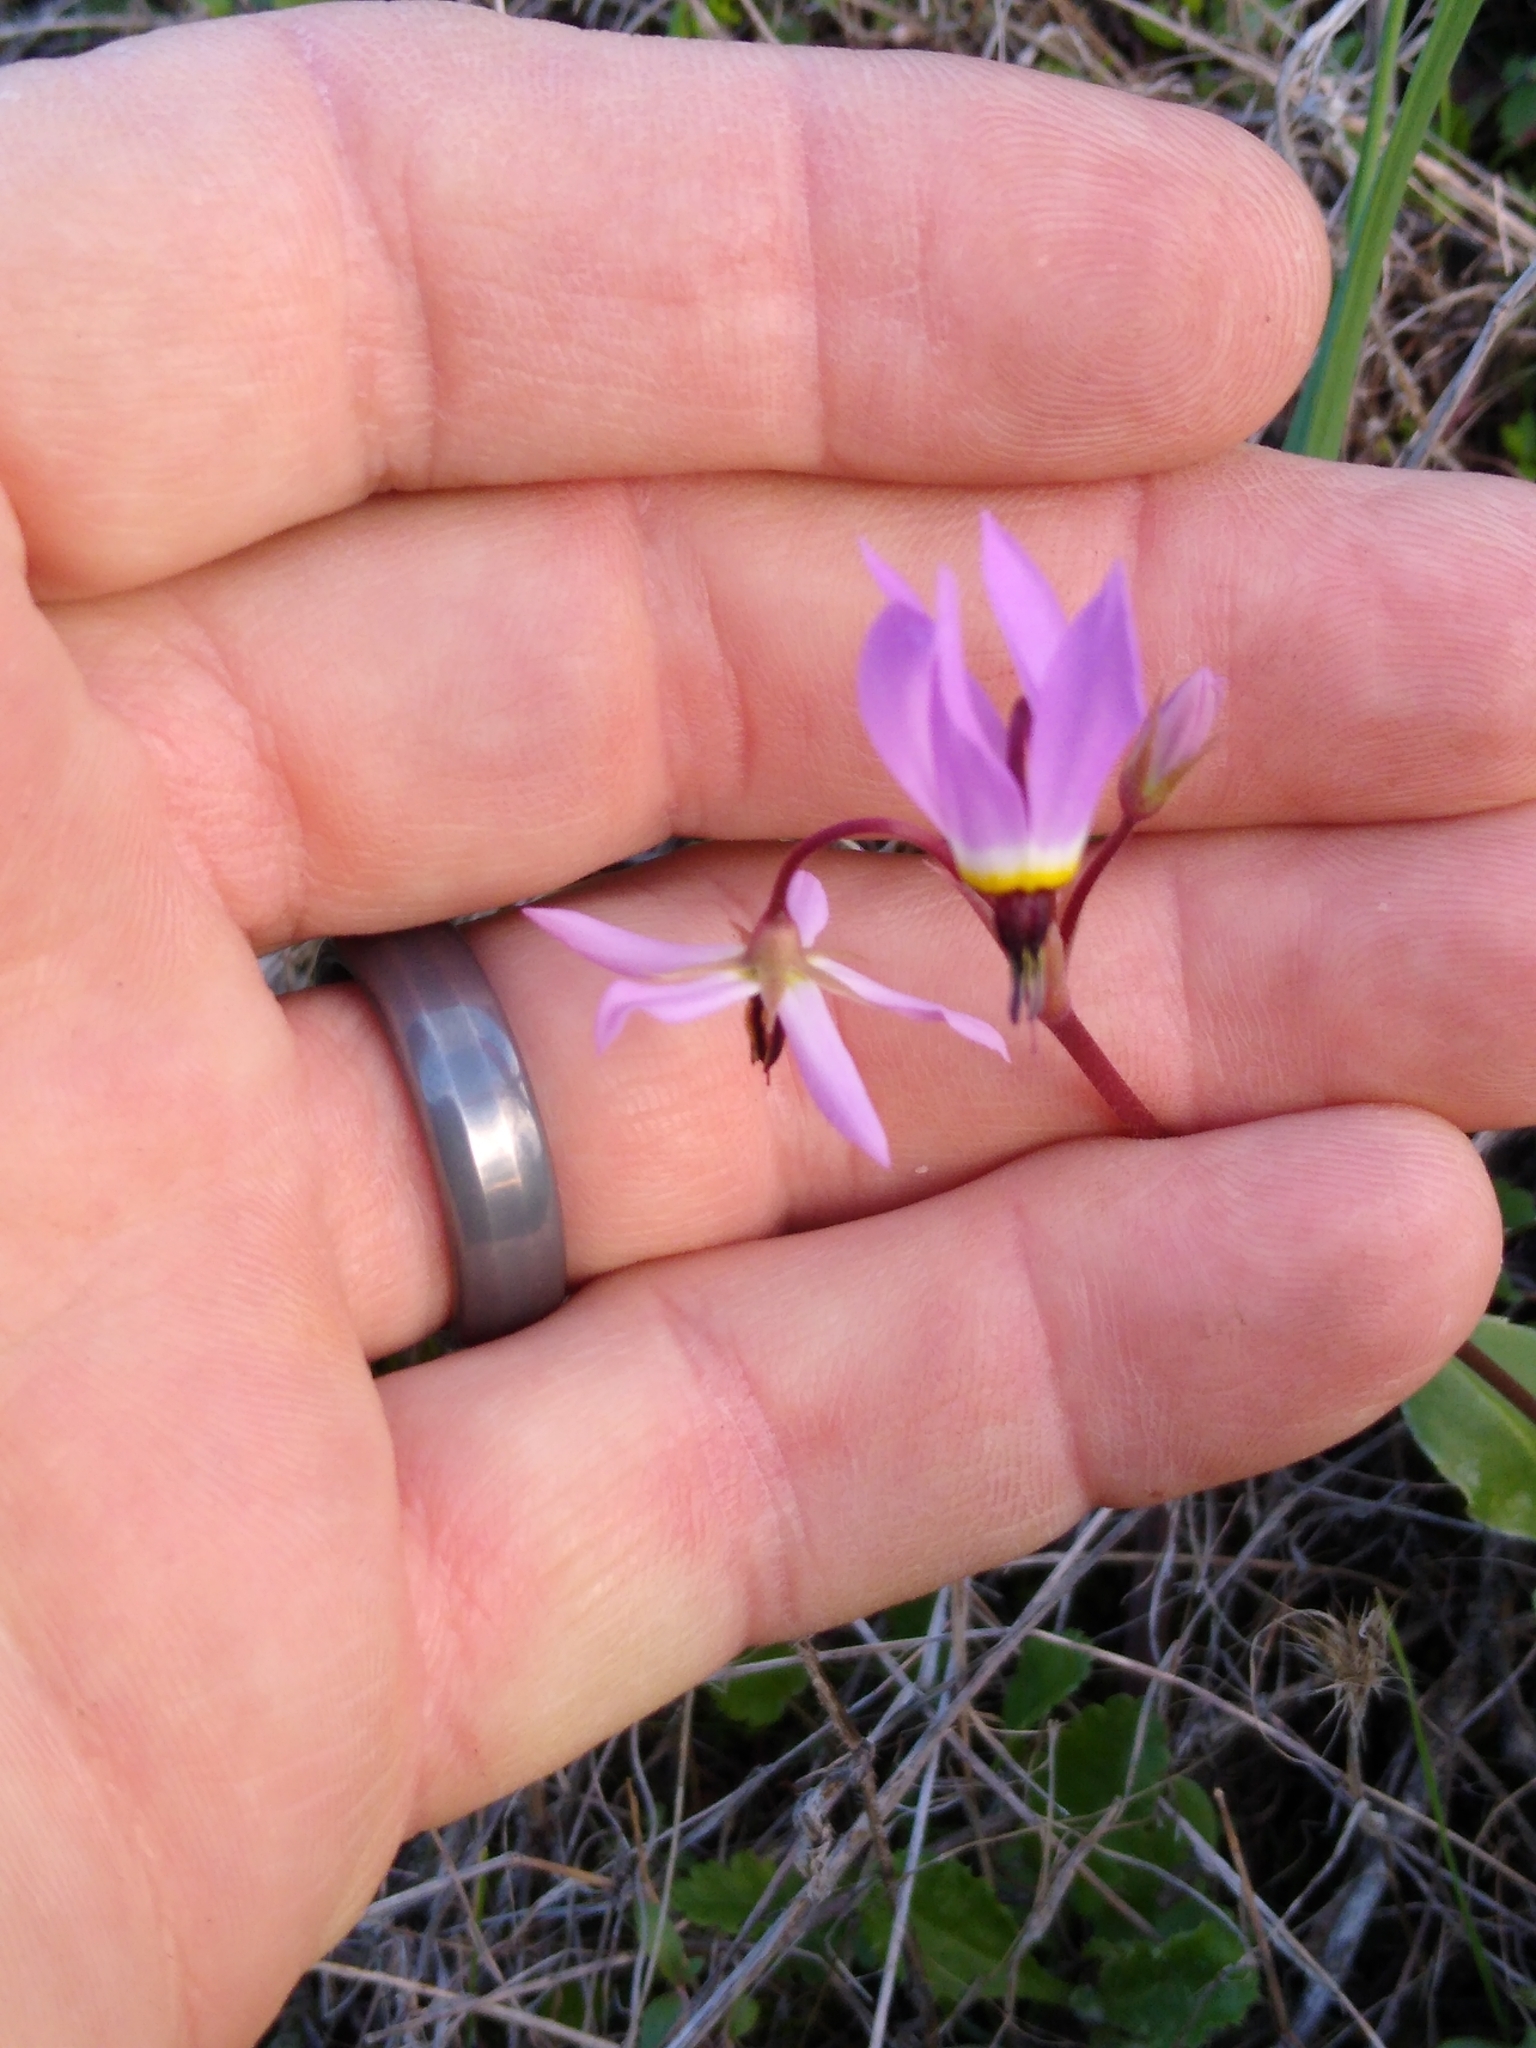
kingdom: Plantae
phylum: Tracheophyta
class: Magnoliopsida
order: Ericales
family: Primulaceae
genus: Dodecatheon
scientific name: Dodecatheon hendersonii
